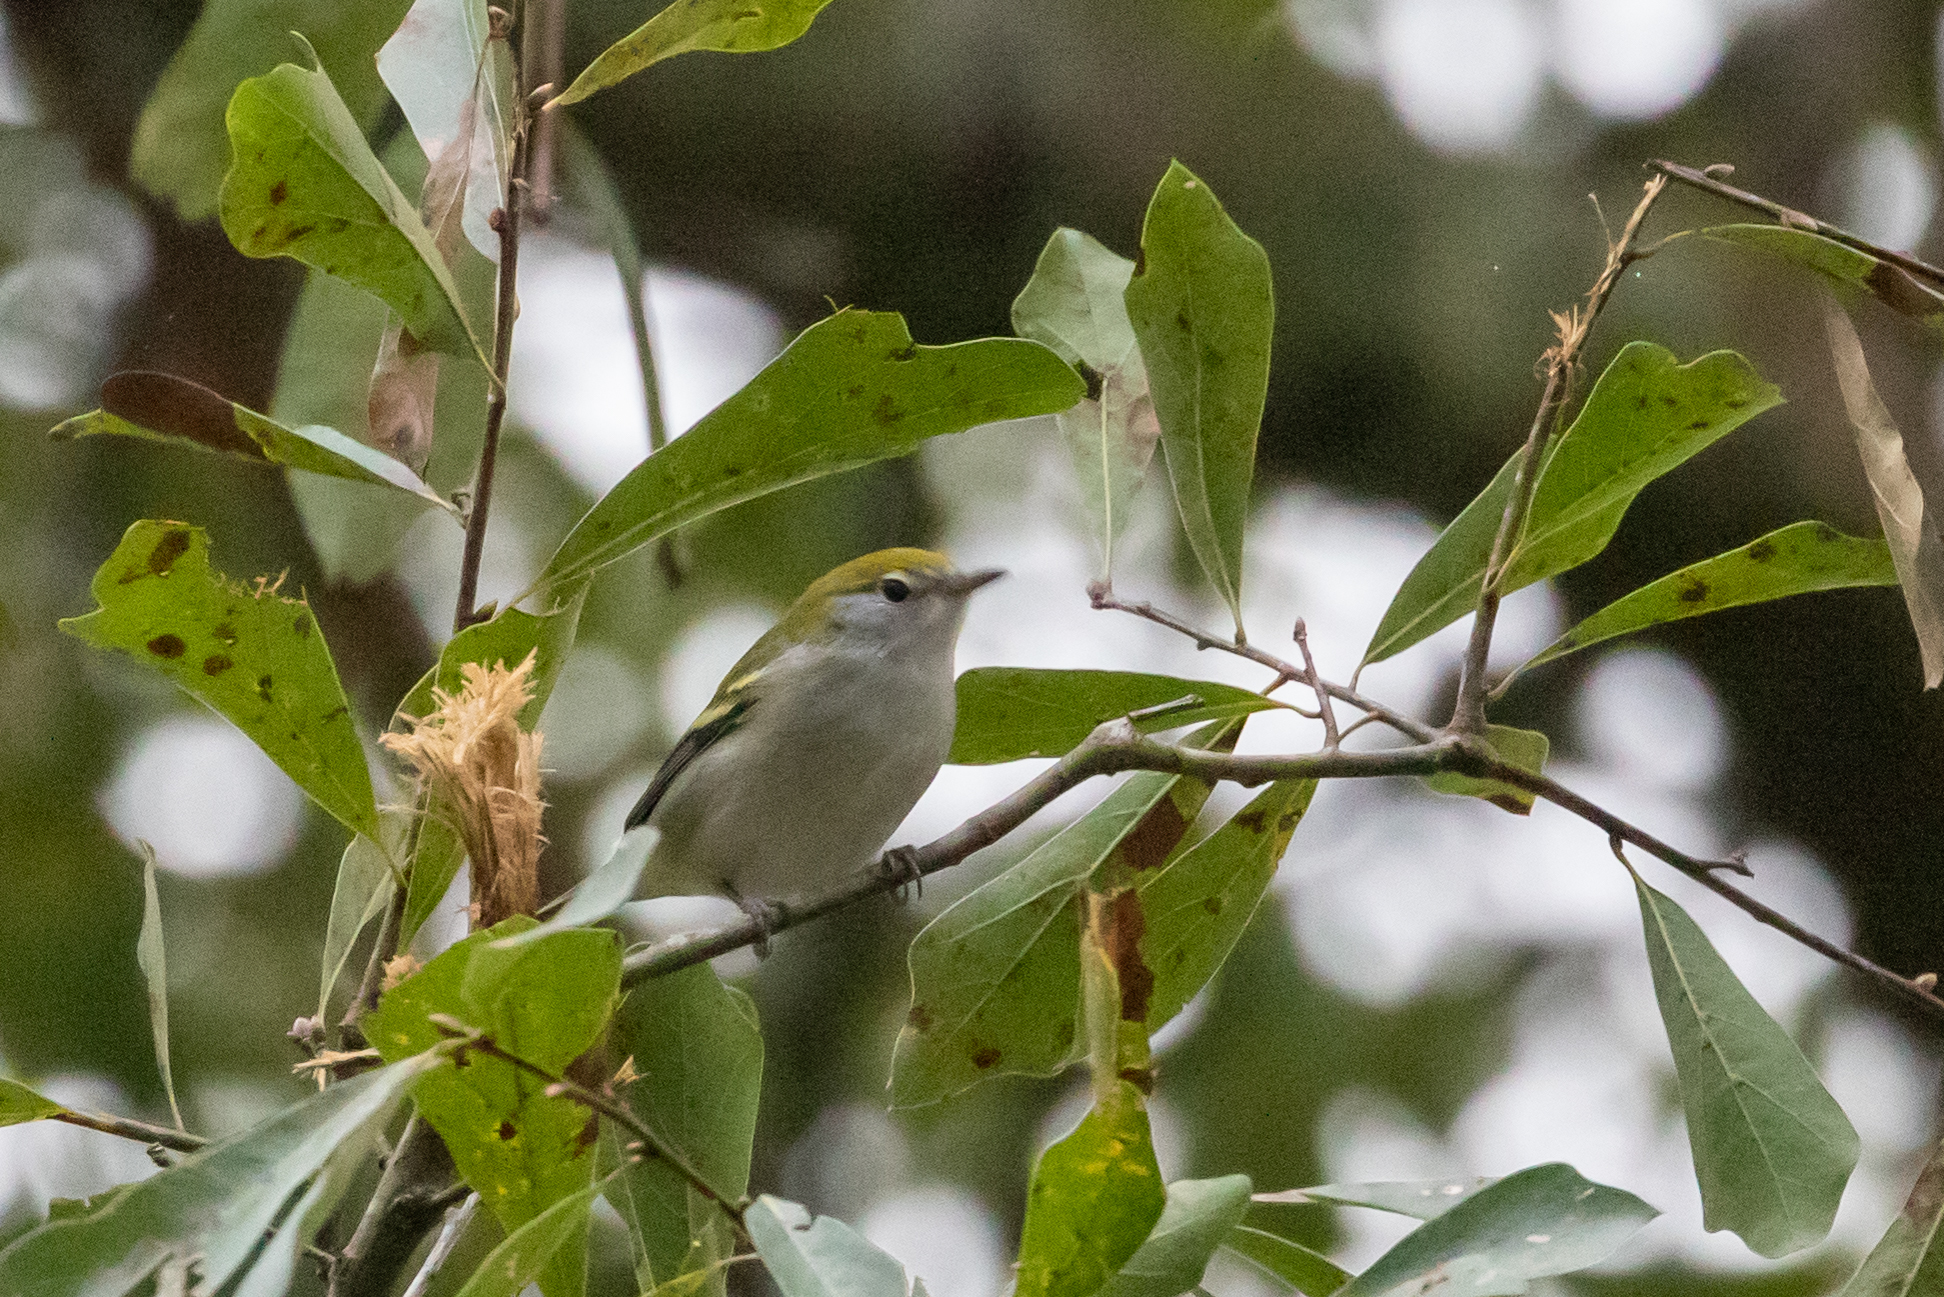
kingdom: Animalia
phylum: Chordata
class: Aves
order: Passeriformes
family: Parulidae
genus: Setophaga
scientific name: Setophaga pensylvanica
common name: Chestnut-sided warbler
